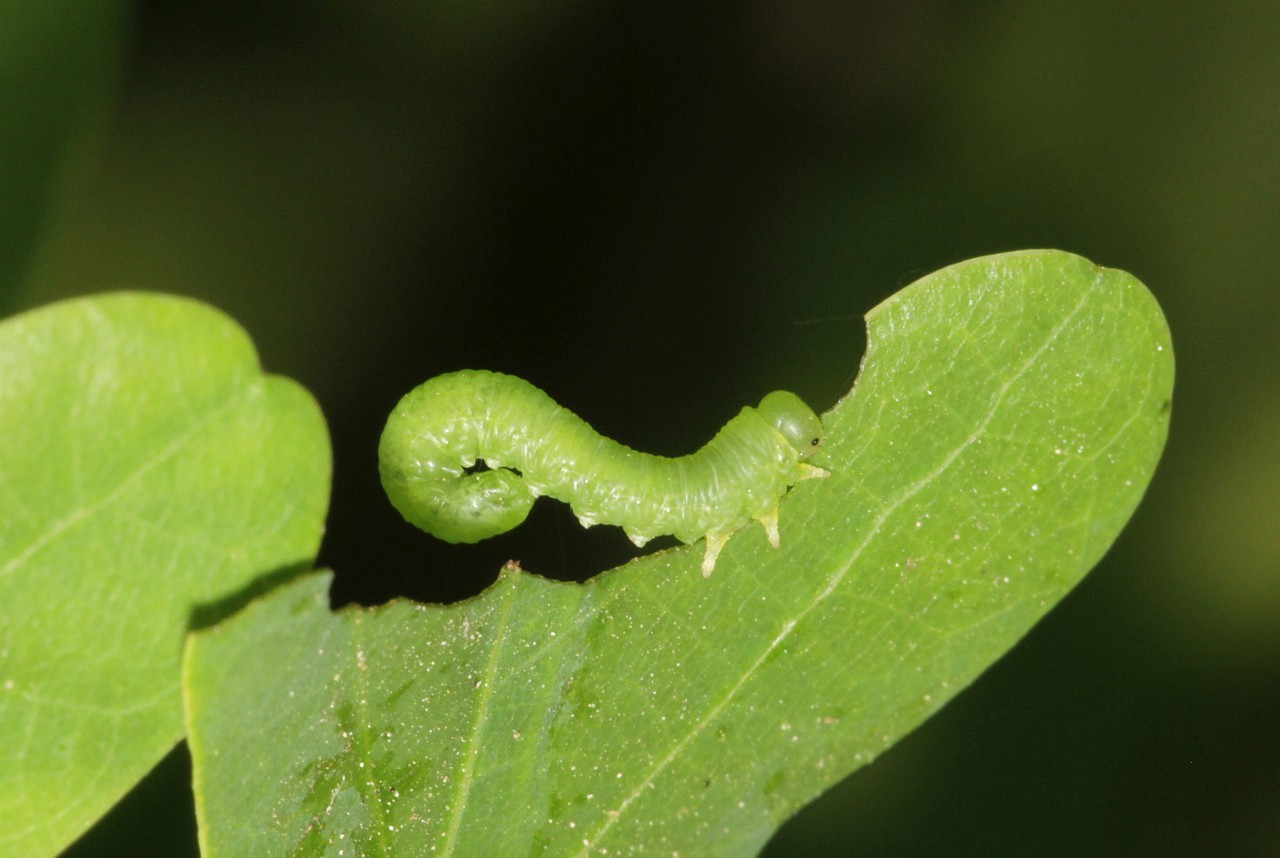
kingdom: Animalia
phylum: Arthropoda
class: Insecta
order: Hymenoptera
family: Tenthredinidae
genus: Mesoneura
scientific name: Mesoneura opaca
